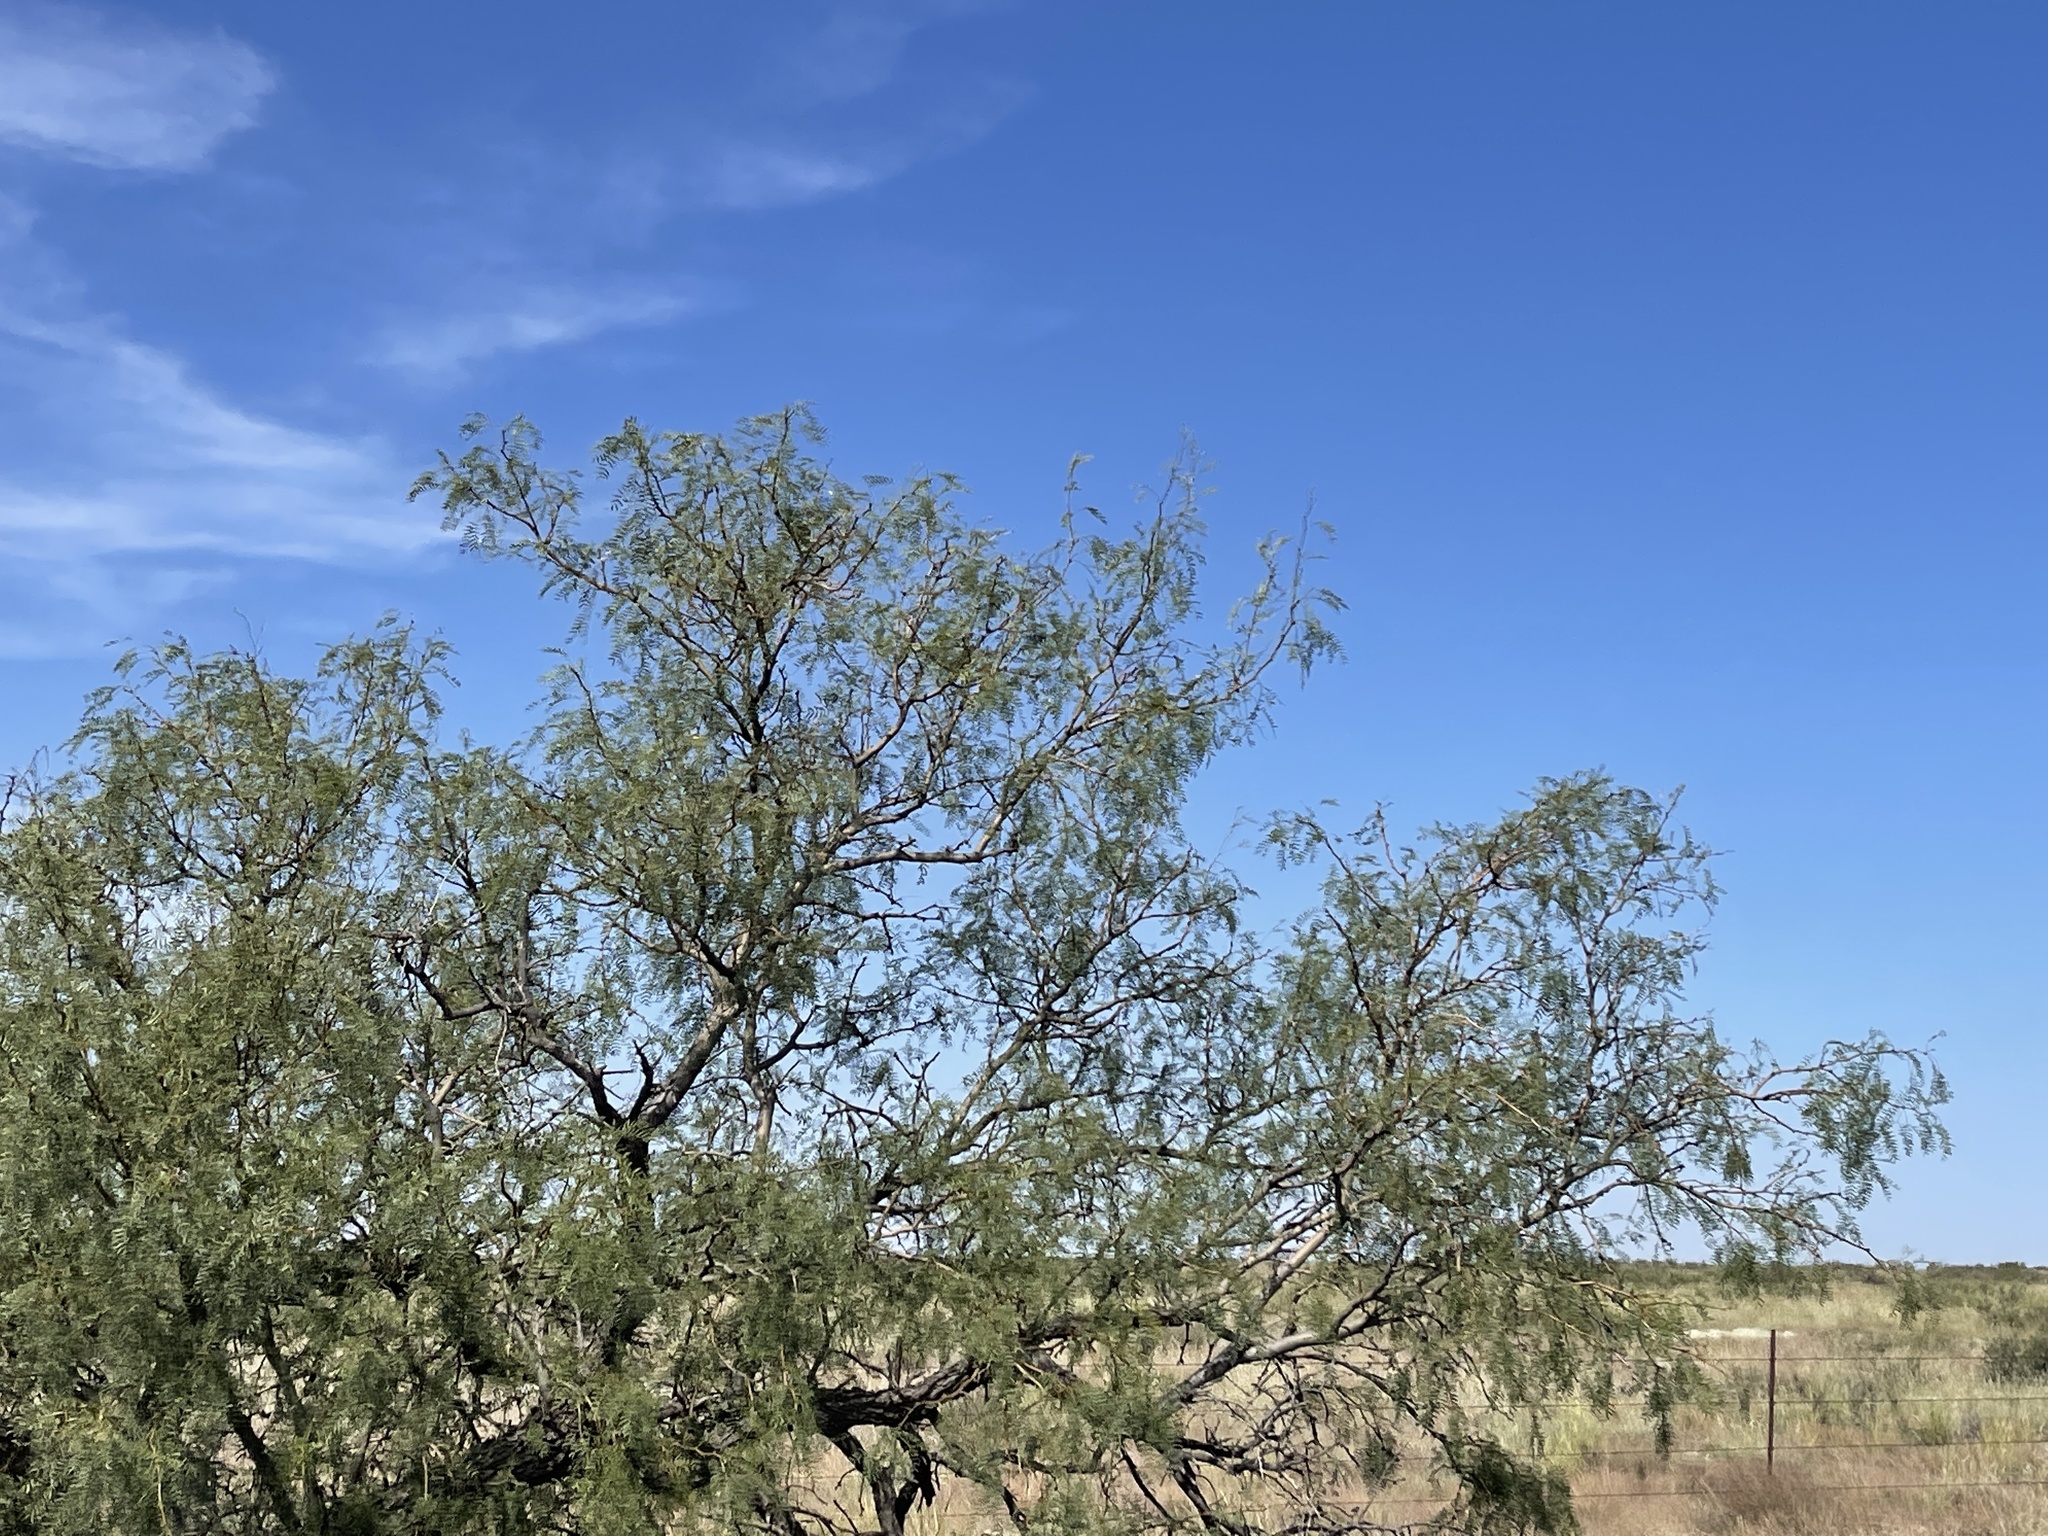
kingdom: Plantae
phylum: Tracheophyta
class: Magnoliopsida
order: Fabales
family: Fabaceae
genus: Prosopis
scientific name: Prosopis glandulosa
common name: Honey mesquite
